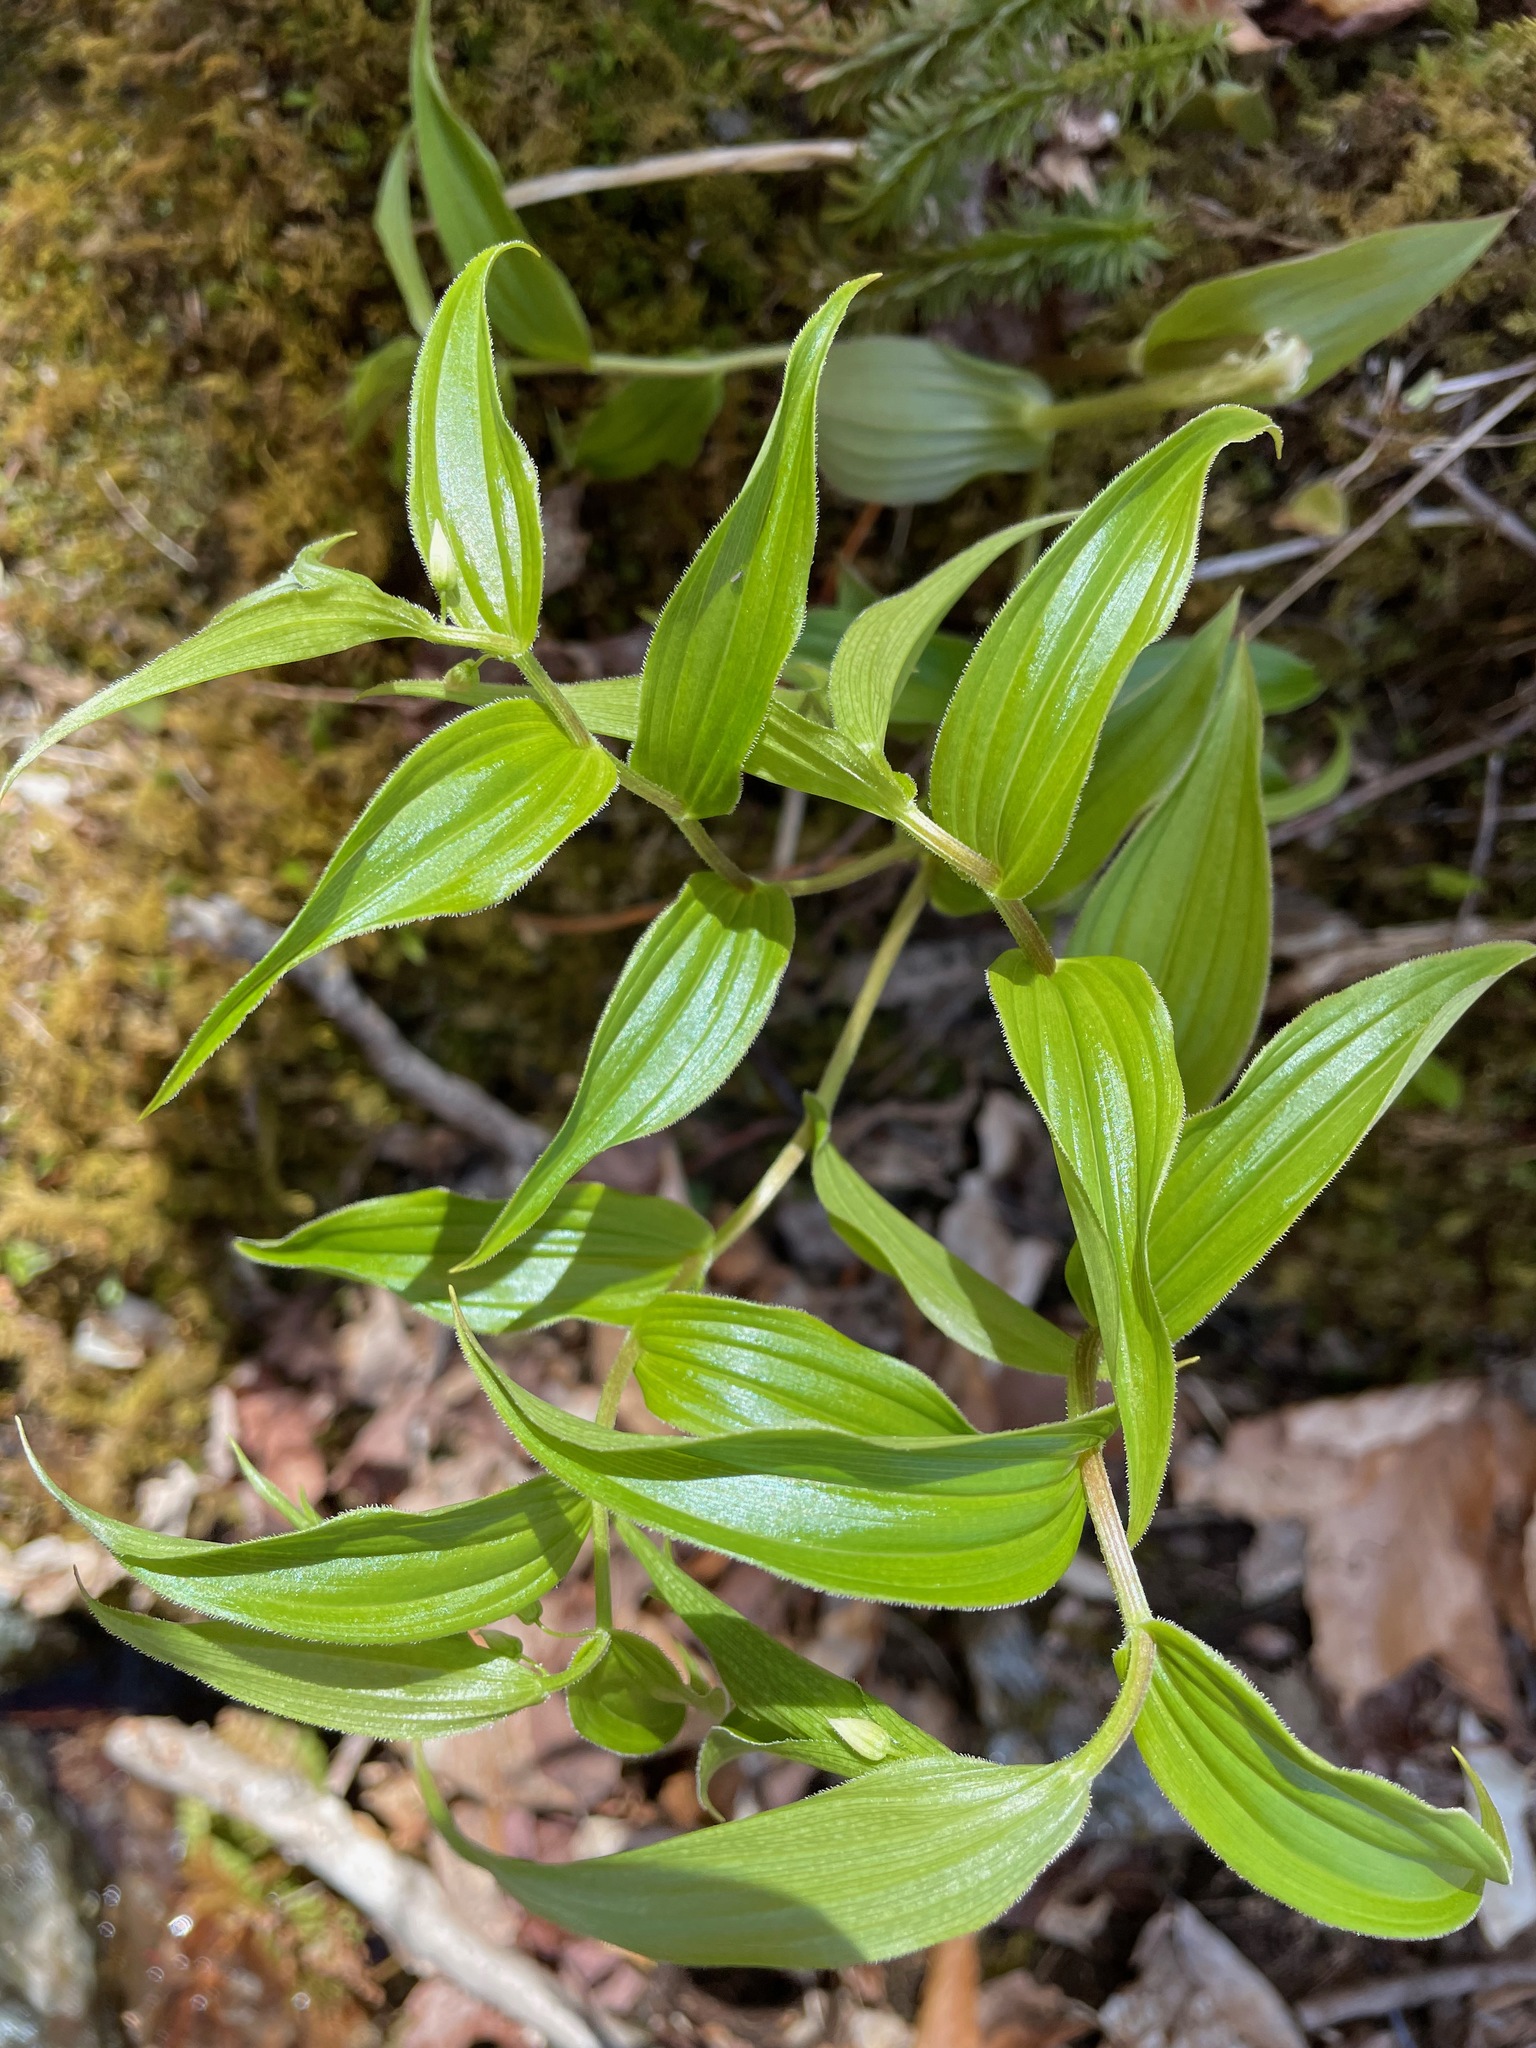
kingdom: Plantae
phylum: Tracheophyta
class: Liliopsida
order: Liliales
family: Liliaceae
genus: Streptopus
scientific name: Streptopus lanceolatus
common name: Rose mandarin
